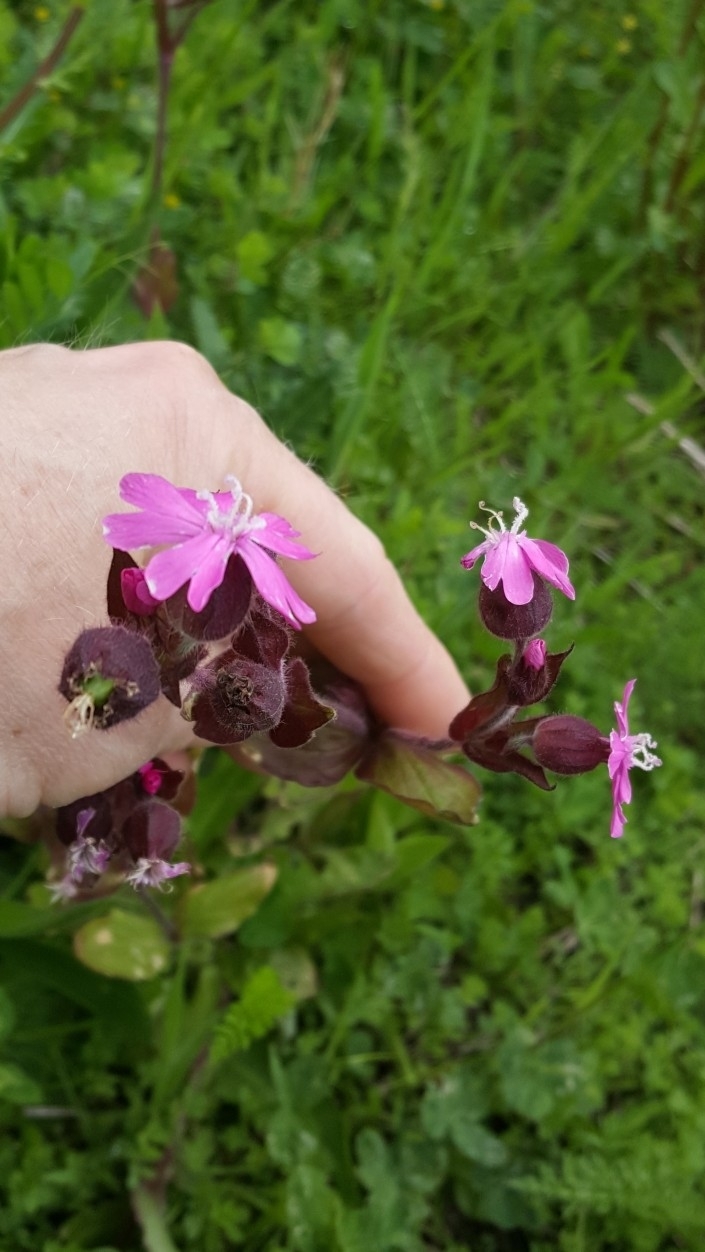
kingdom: Plantae
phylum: Tracheophyta
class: Magnoliopsida
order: Caryophyllales
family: Caryophyllaceae
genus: Silene
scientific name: Silene dioica
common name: Red campion
